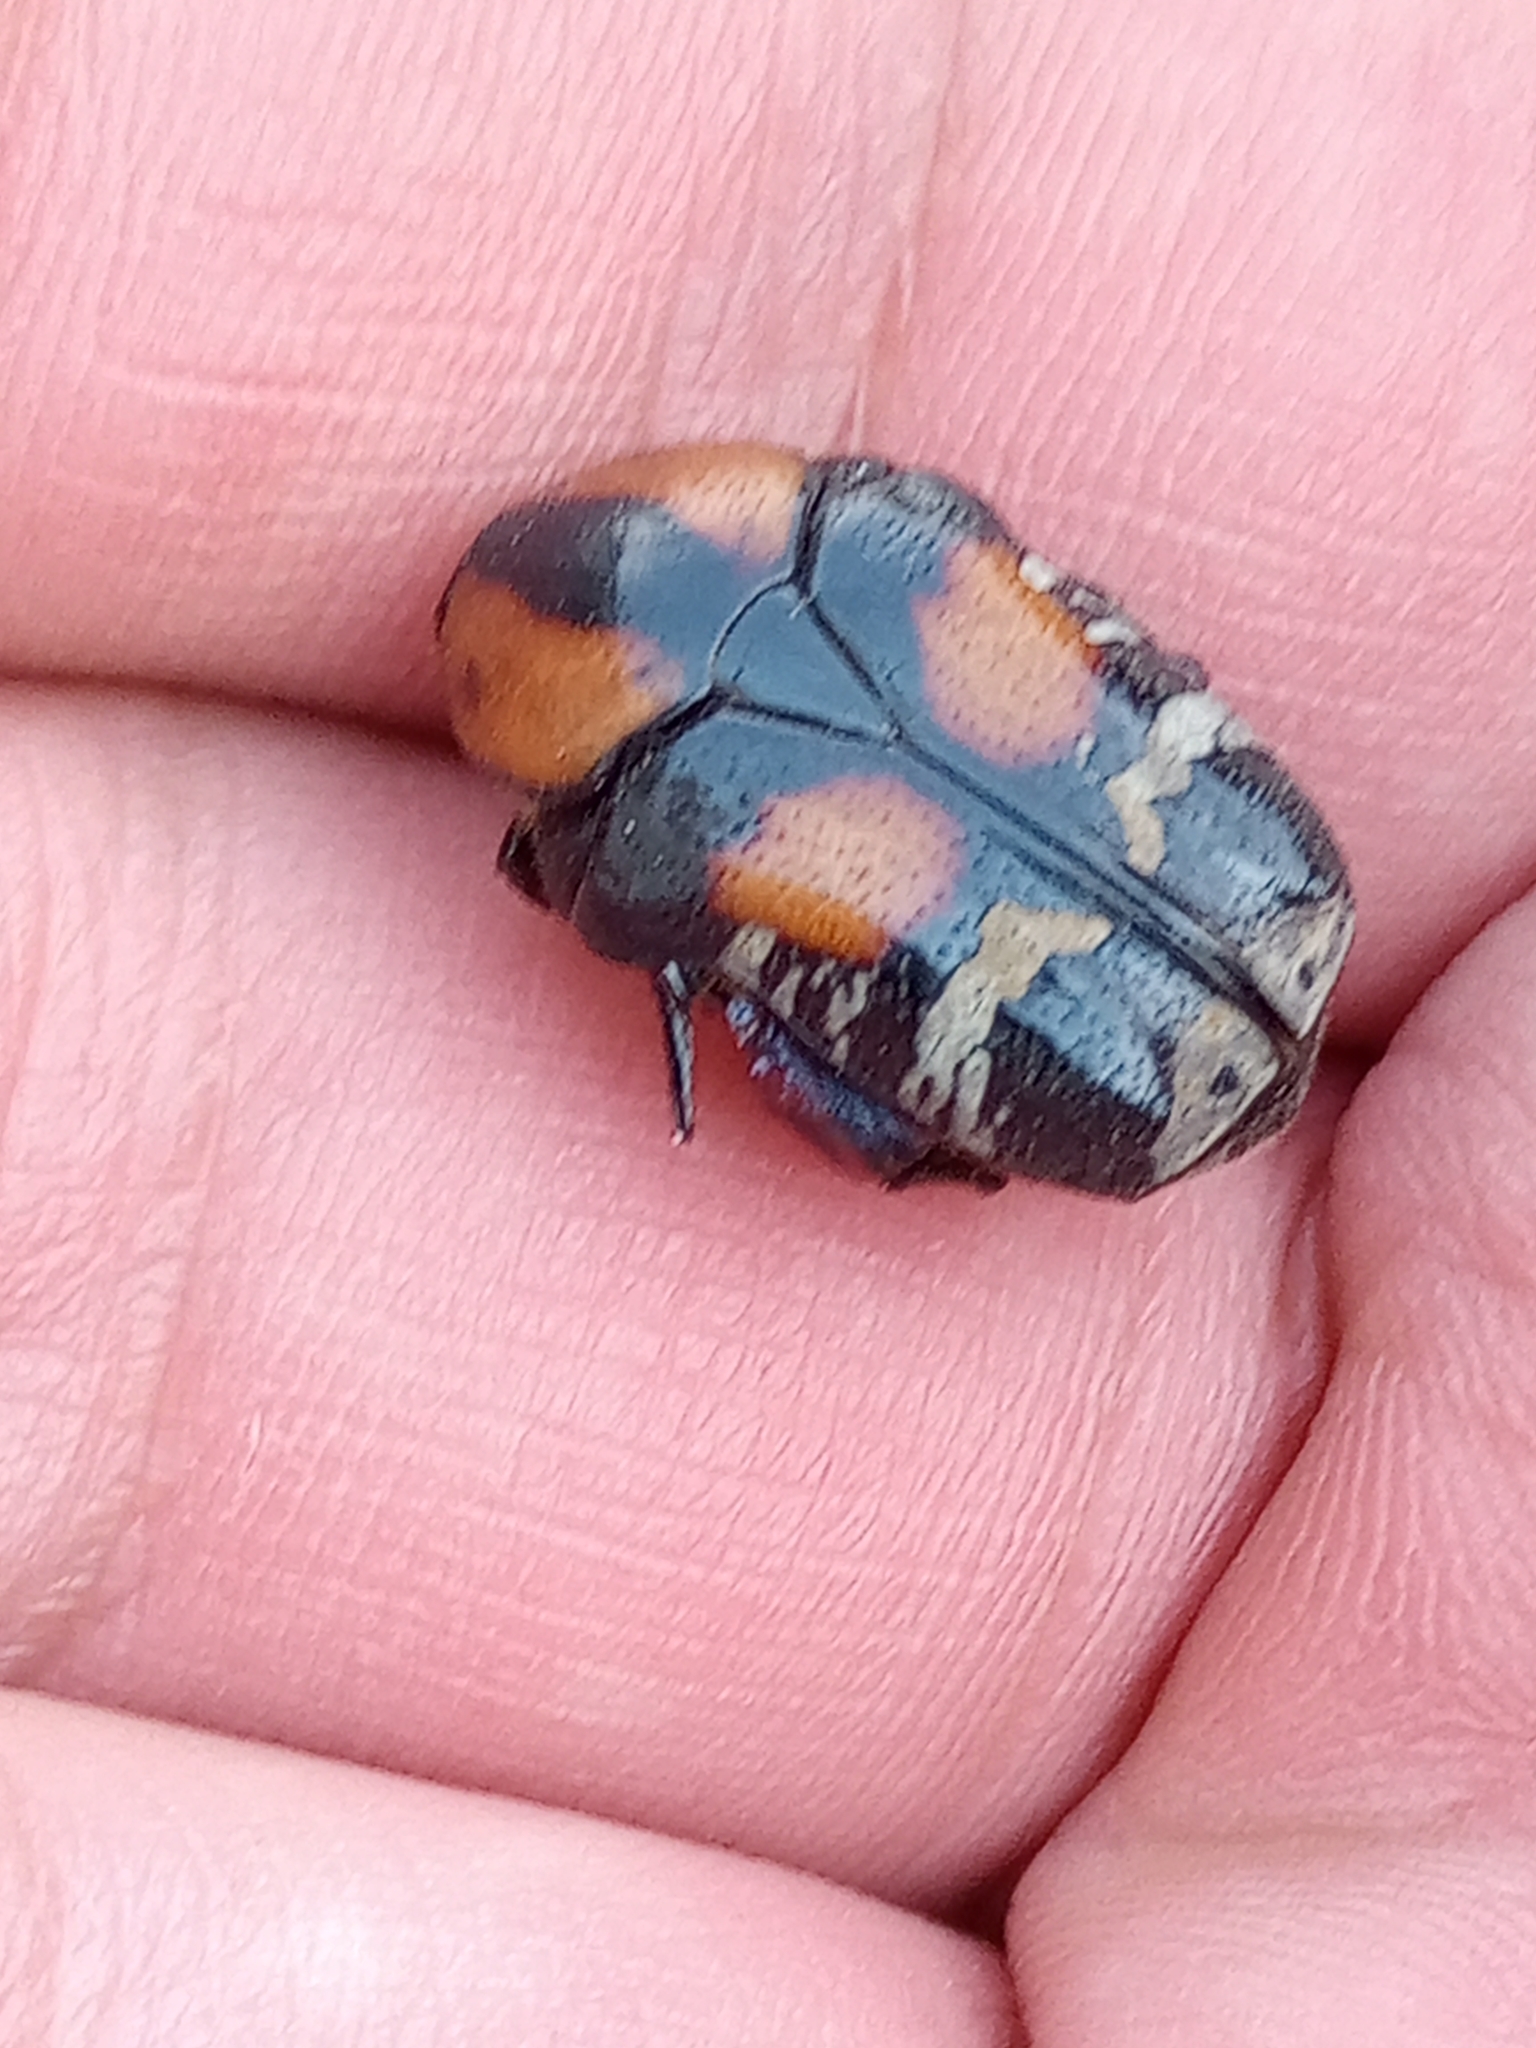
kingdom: Animalia
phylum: Arthropoda
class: Insecta
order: Coleoptera
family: Scarabaeidae
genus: Euphoria
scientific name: Euphoria biguttata
